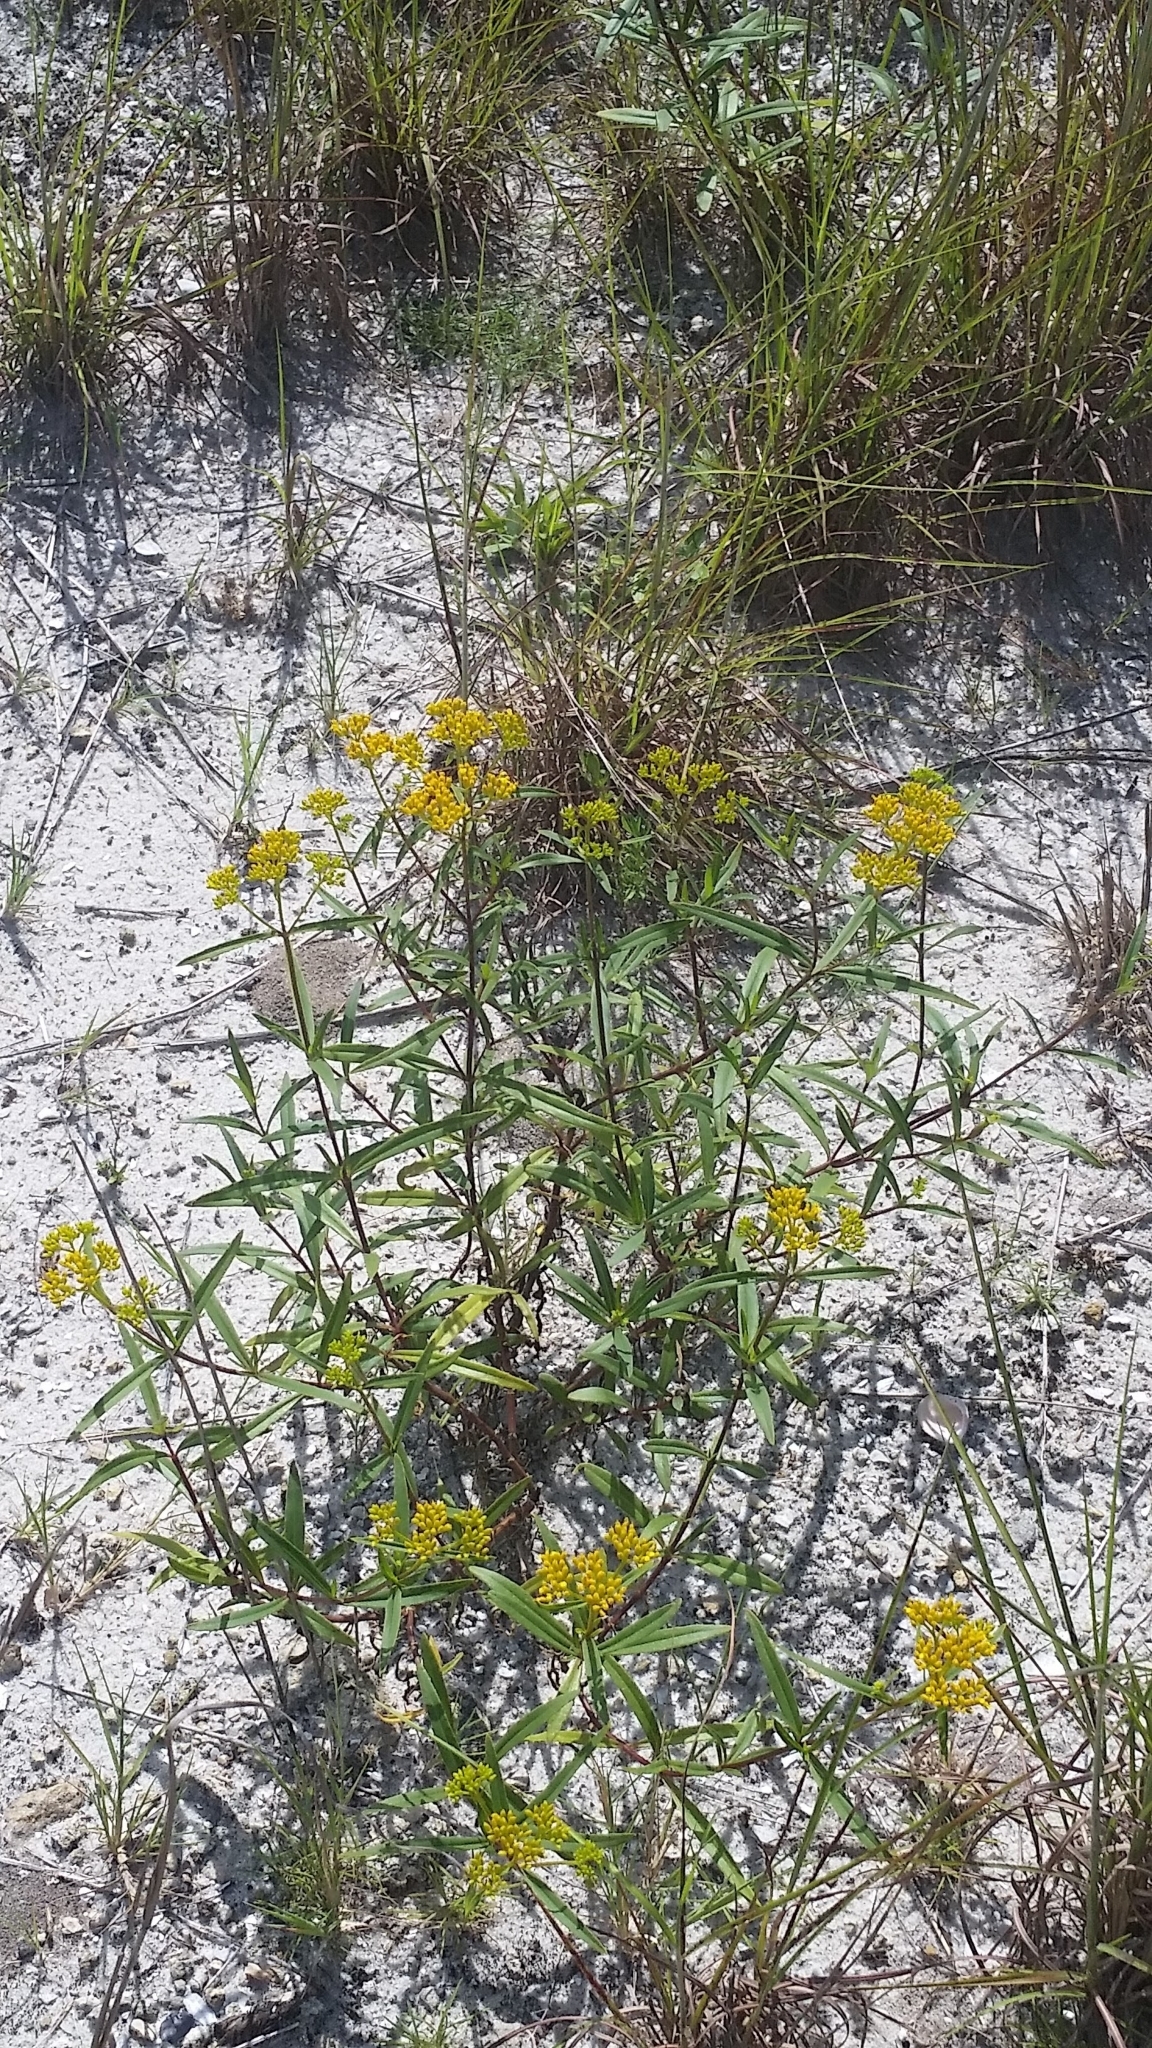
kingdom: Plantae
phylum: Tracheophyta
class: Magnoliopsida
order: Asterales
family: Asteraceae
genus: Flaveria
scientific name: Flaveria linearis
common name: Yellowtop
